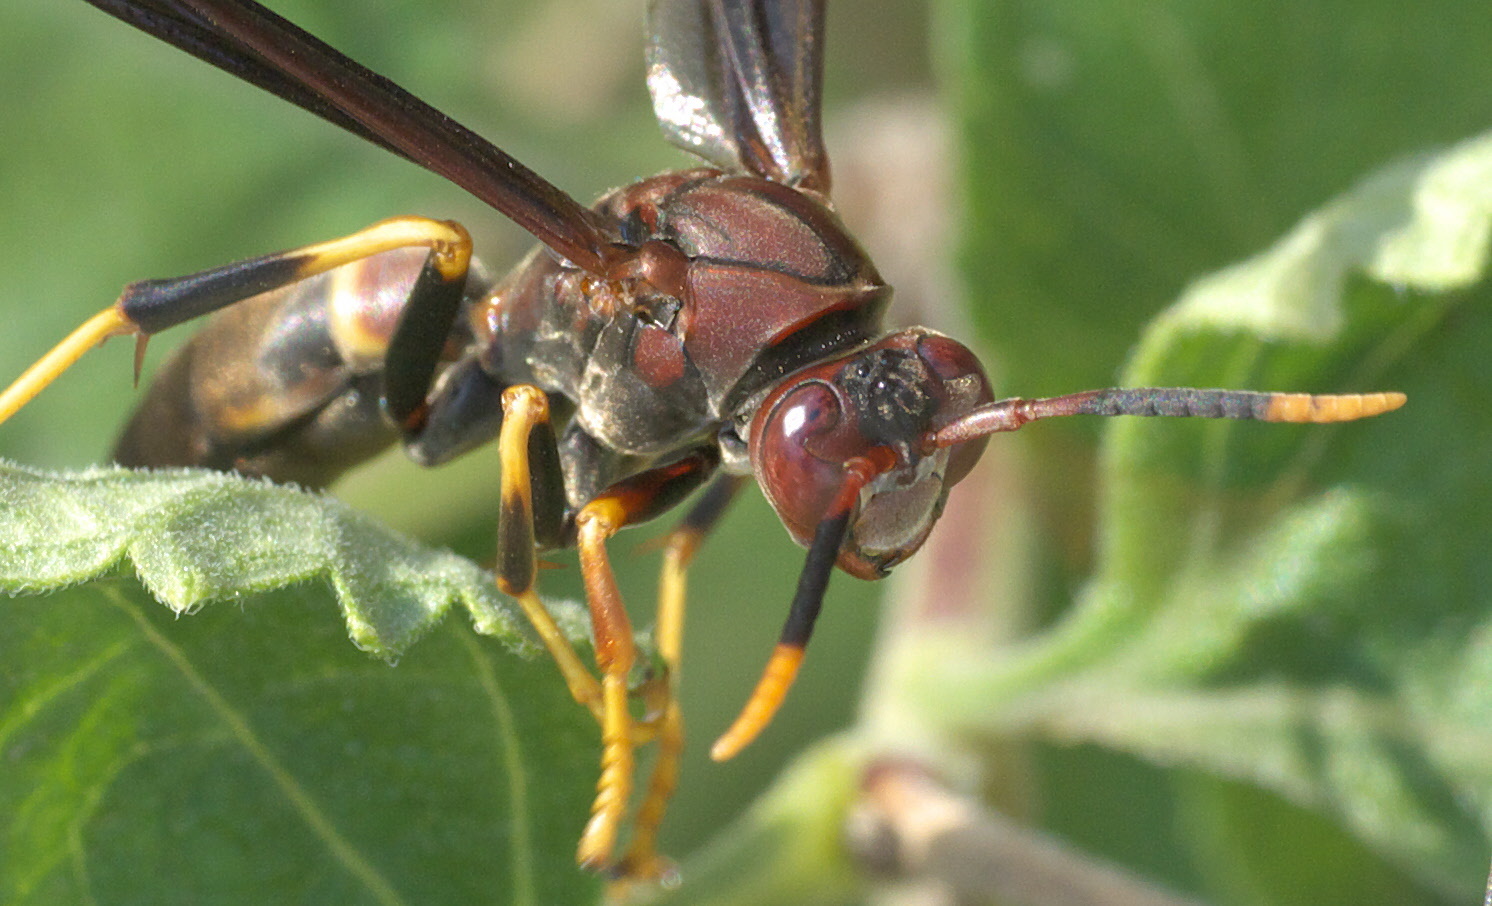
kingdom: Animalia
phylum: Arthropoda
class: Insecta
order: Hymenoptera
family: Eumenidae
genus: Polistes
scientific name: Polistes annularis
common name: Ringed paper wasp
